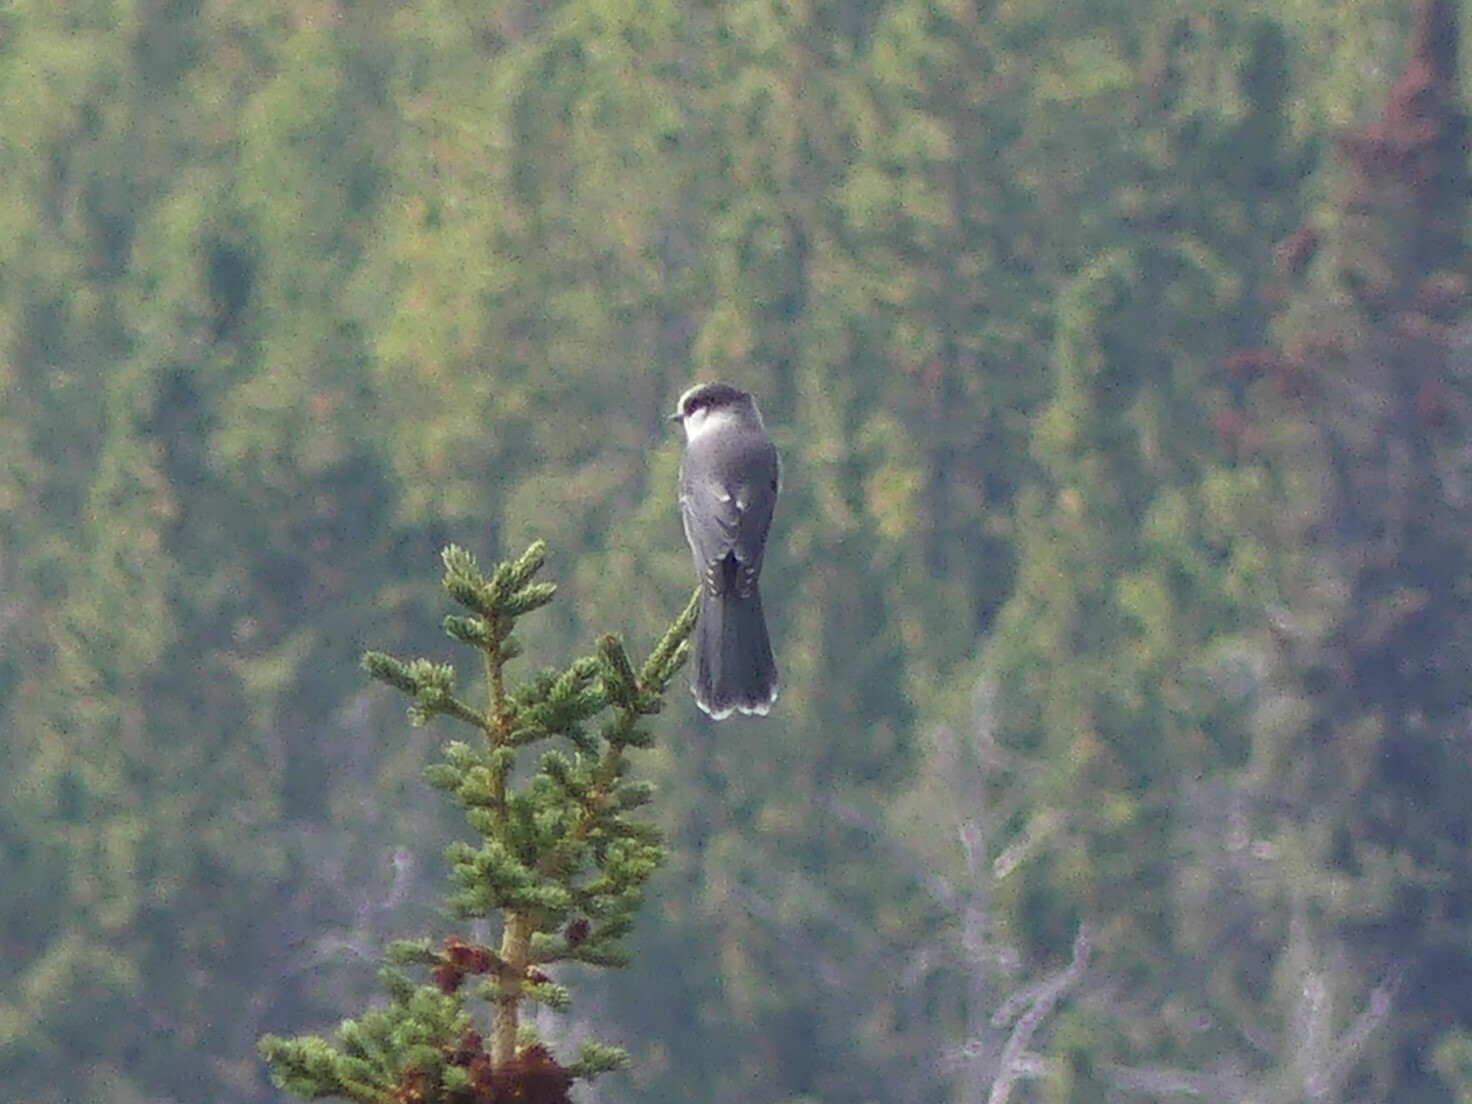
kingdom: Animalia
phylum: Chordata
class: Aves
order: Passeriformes
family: Corvidae
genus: Perisoreus
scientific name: Perisoreus canadensis
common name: Gray jay
